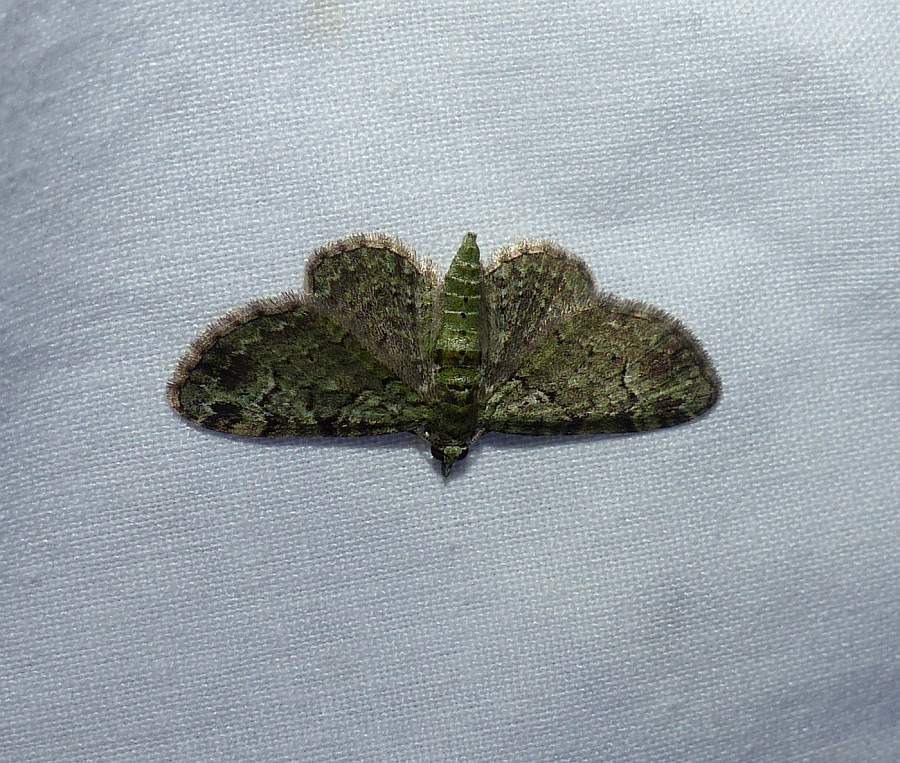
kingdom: Animalia
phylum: Arthropoda
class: Insecta
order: Lepidoptera
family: Geometridae
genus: Pasiphila
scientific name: Pasiphila rectangulata
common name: Green pug
